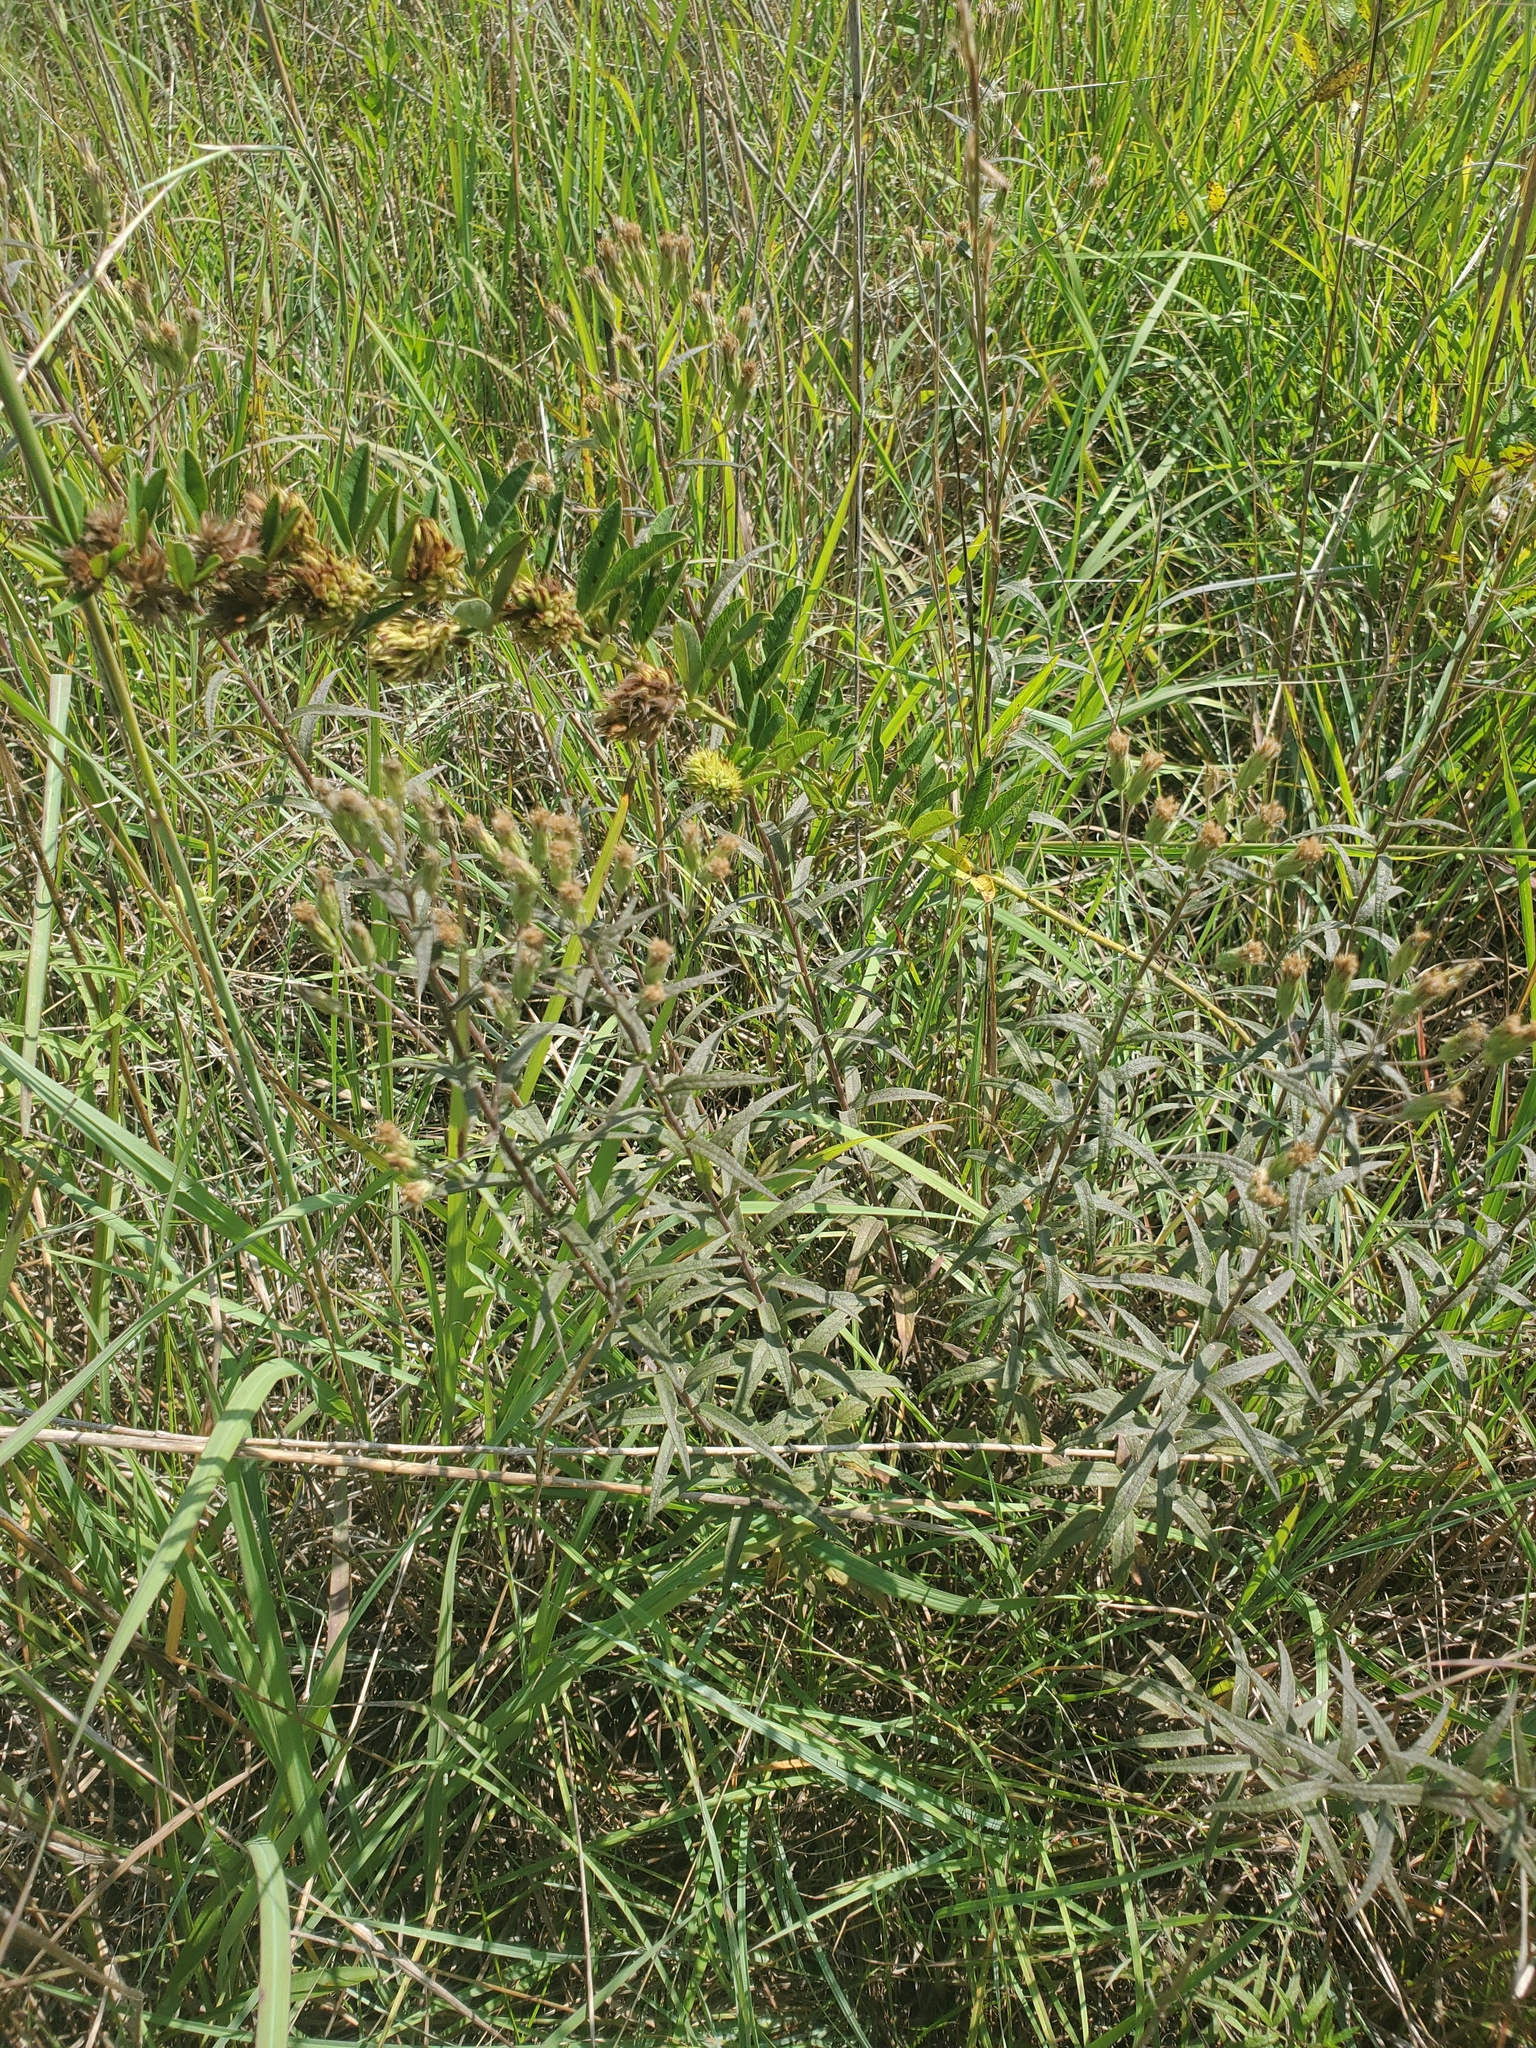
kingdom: Plantae
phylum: Tracheophyta
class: Magnoliopsida
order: Fabales
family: Fabaceae
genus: Lespedeza
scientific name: Lespedeza capitata
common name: Dusty clover
